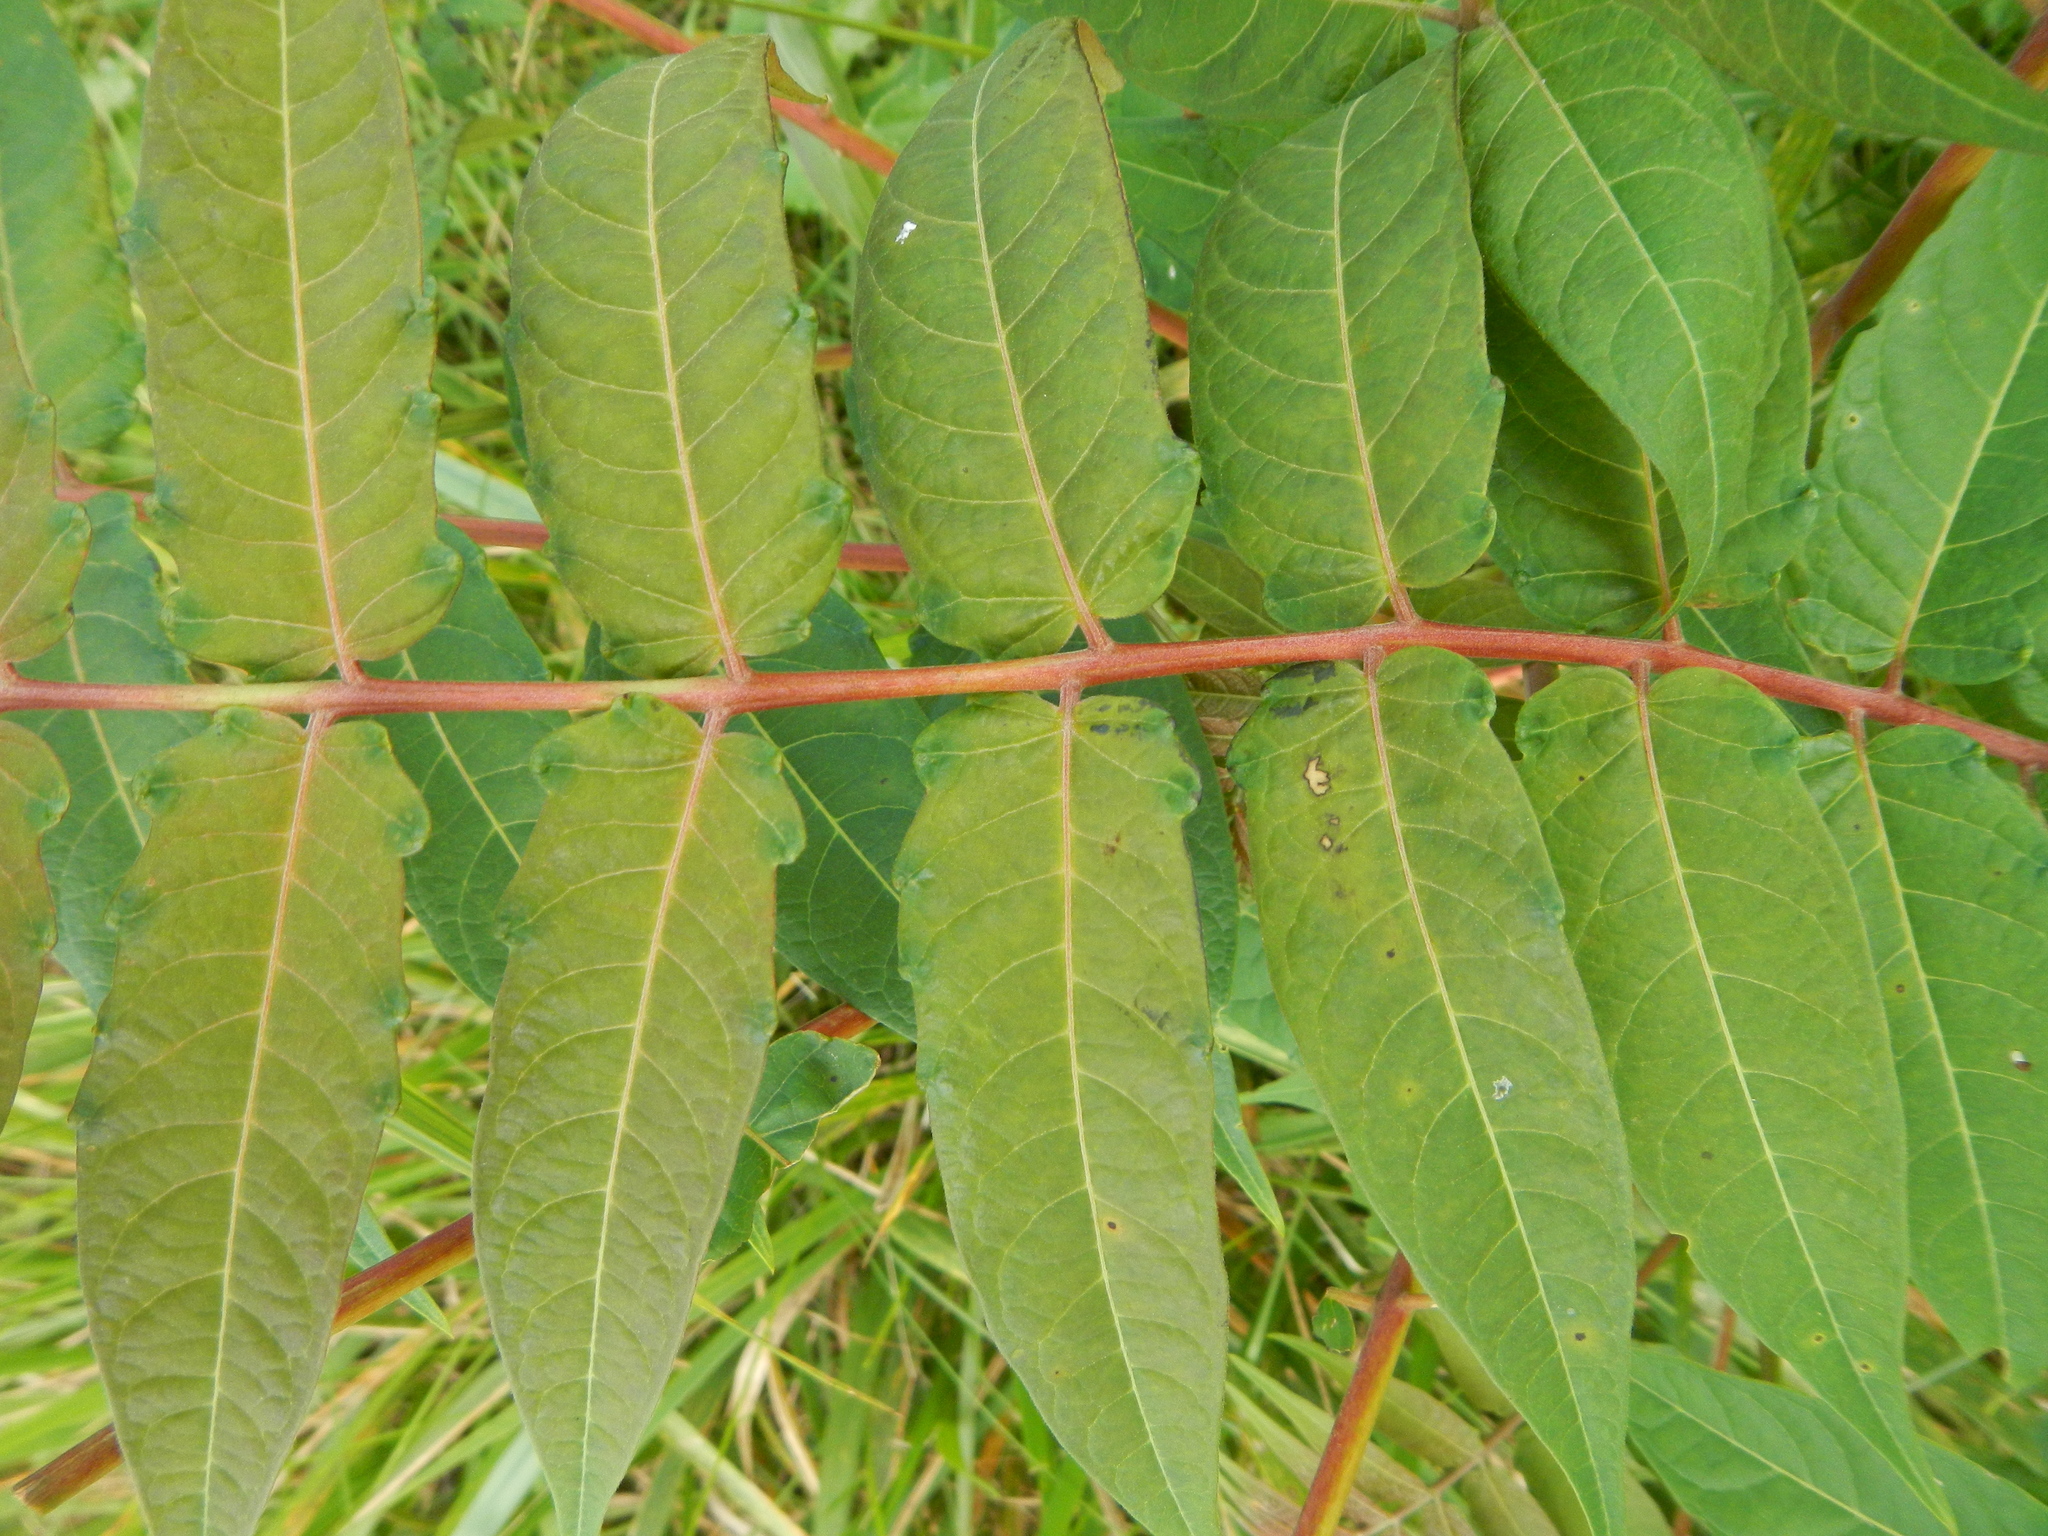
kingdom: Plantae
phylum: Tracheophyta
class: Magnoliopsida
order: Sapindales
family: Simaroubaceae
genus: Ailanthus
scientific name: Ailanthus altissima
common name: Tree-of-heaven
